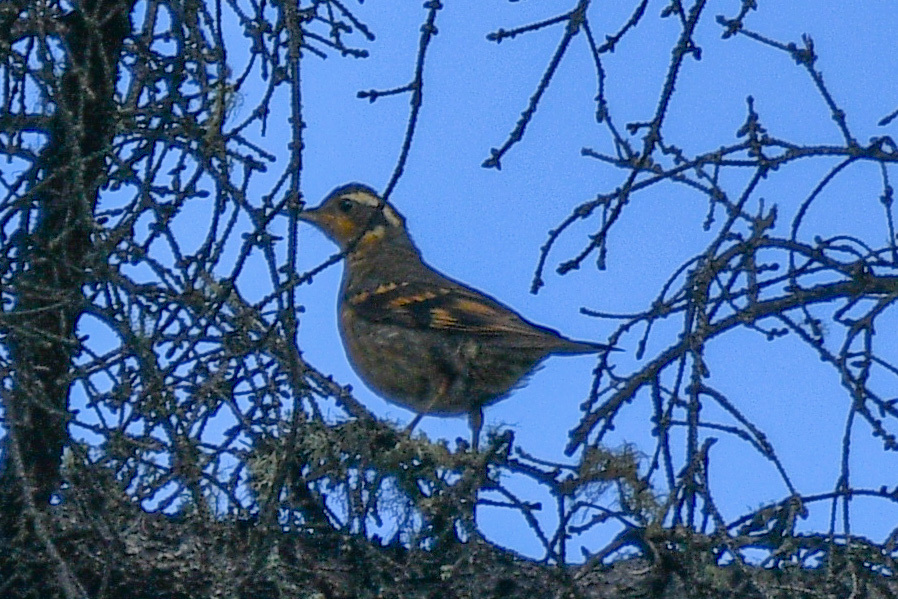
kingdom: Animalia
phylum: Chordata
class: Aves
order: Passeriformes
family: Turdidae
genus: Ixoreus
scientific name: Ixoreus naevius
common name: Varied thrush
